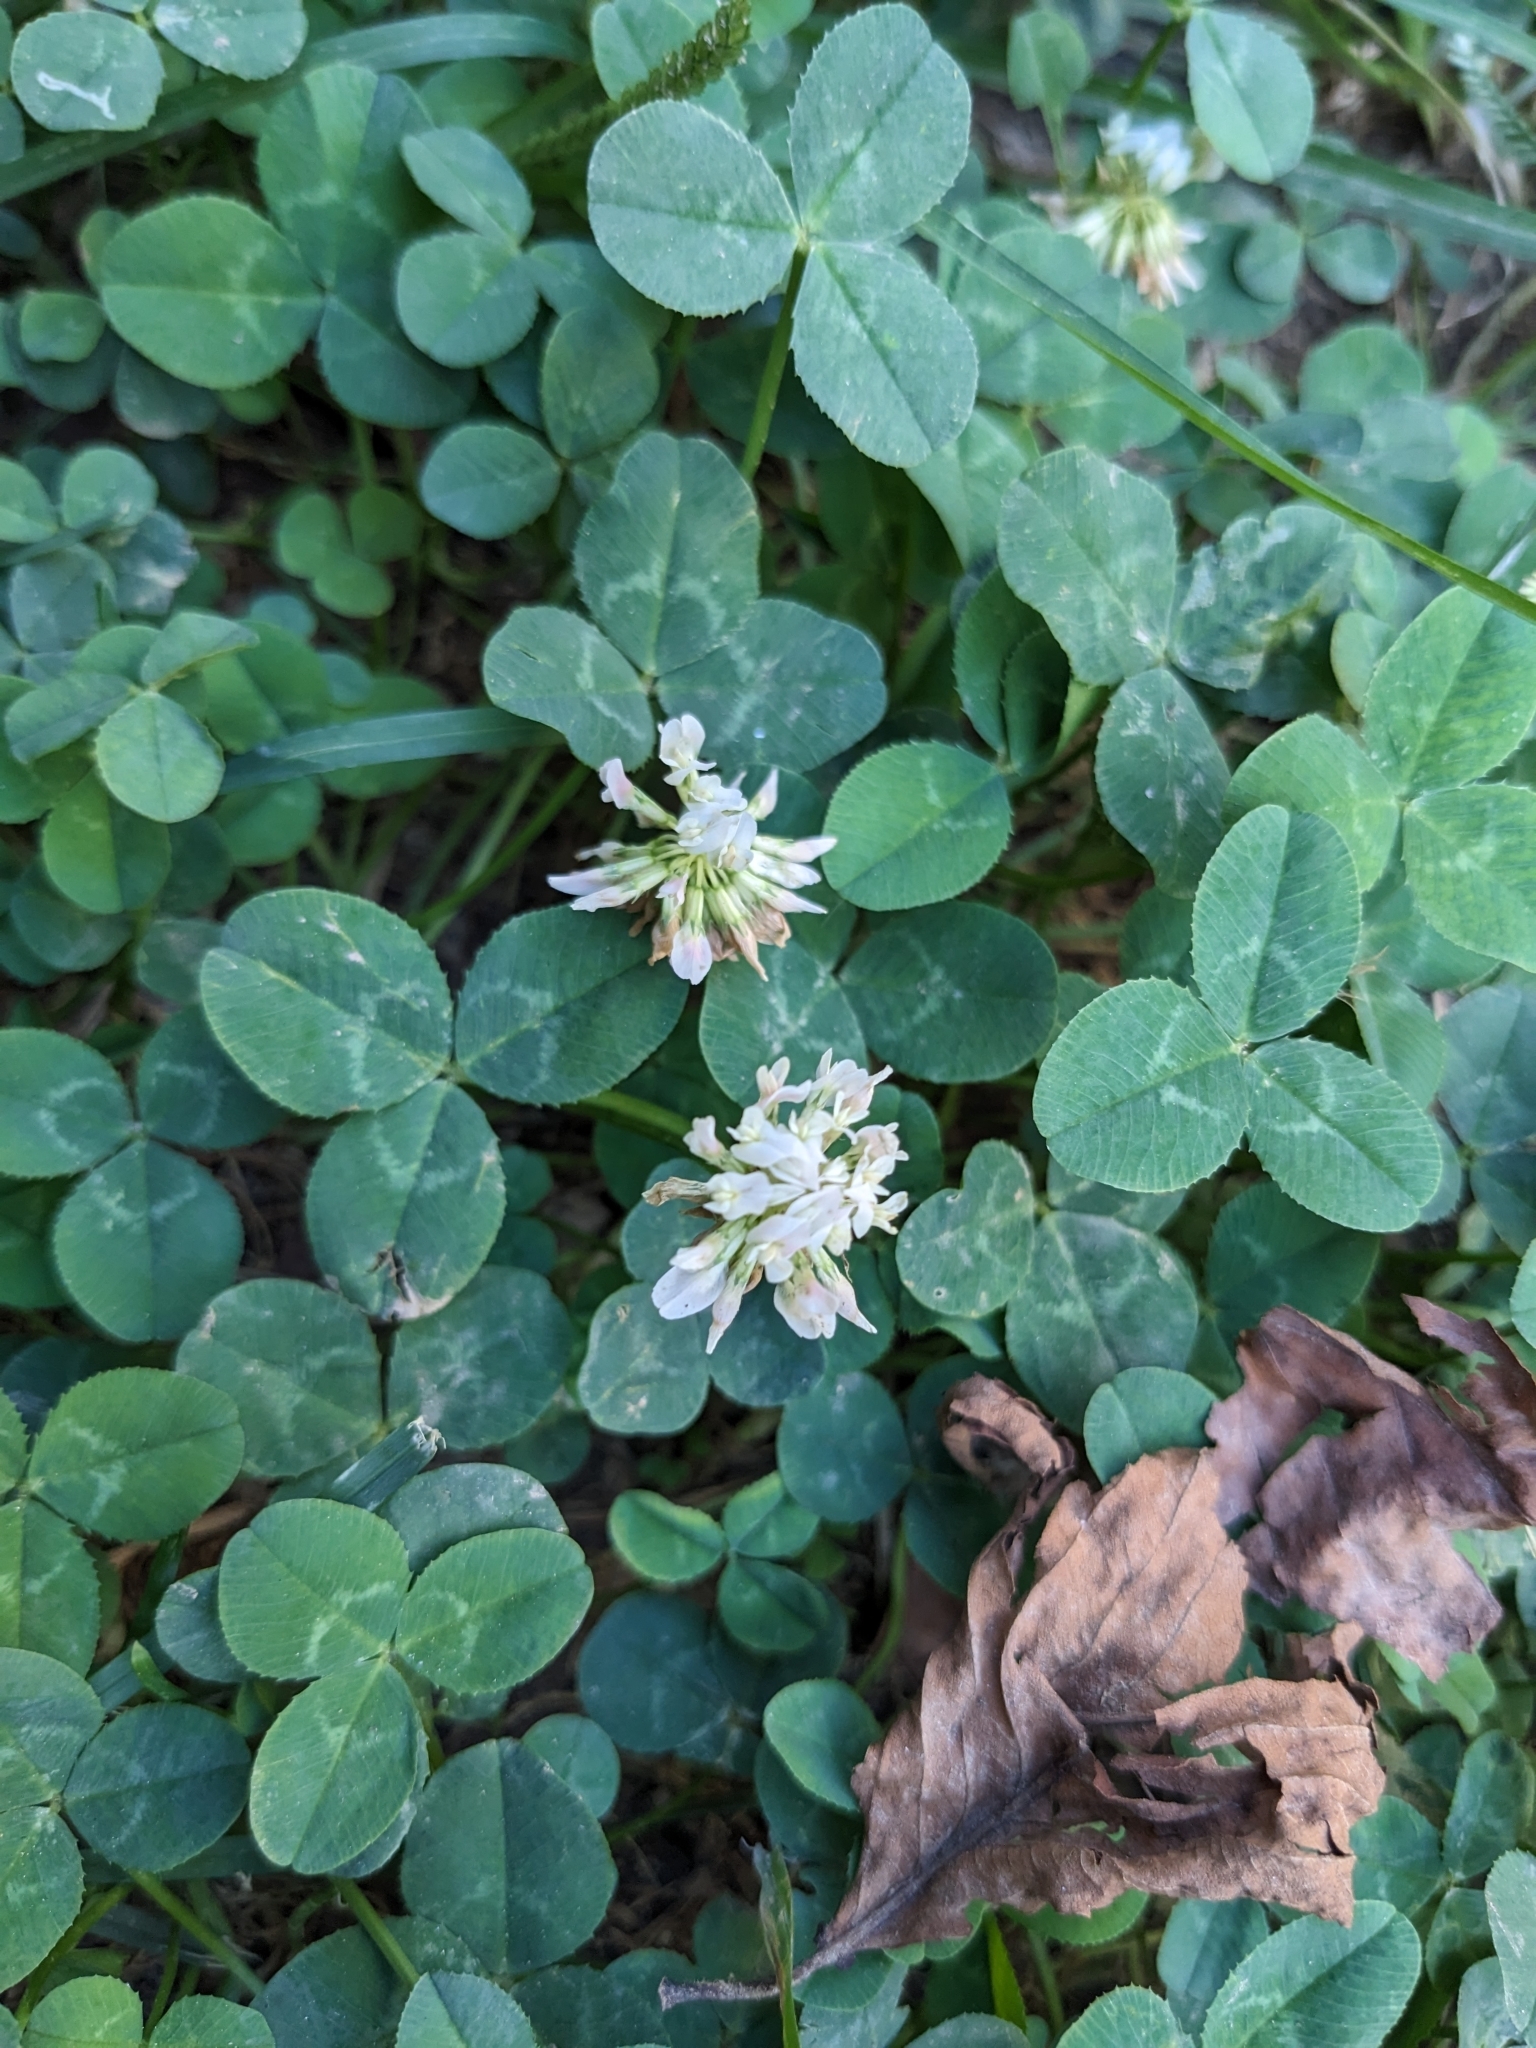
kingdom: Plantae
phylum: Tracheophyta
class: Magnoliopsida
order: Fabales
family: Fabaceae
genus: Trifolium
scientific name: Trifolium repens
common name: White clover
